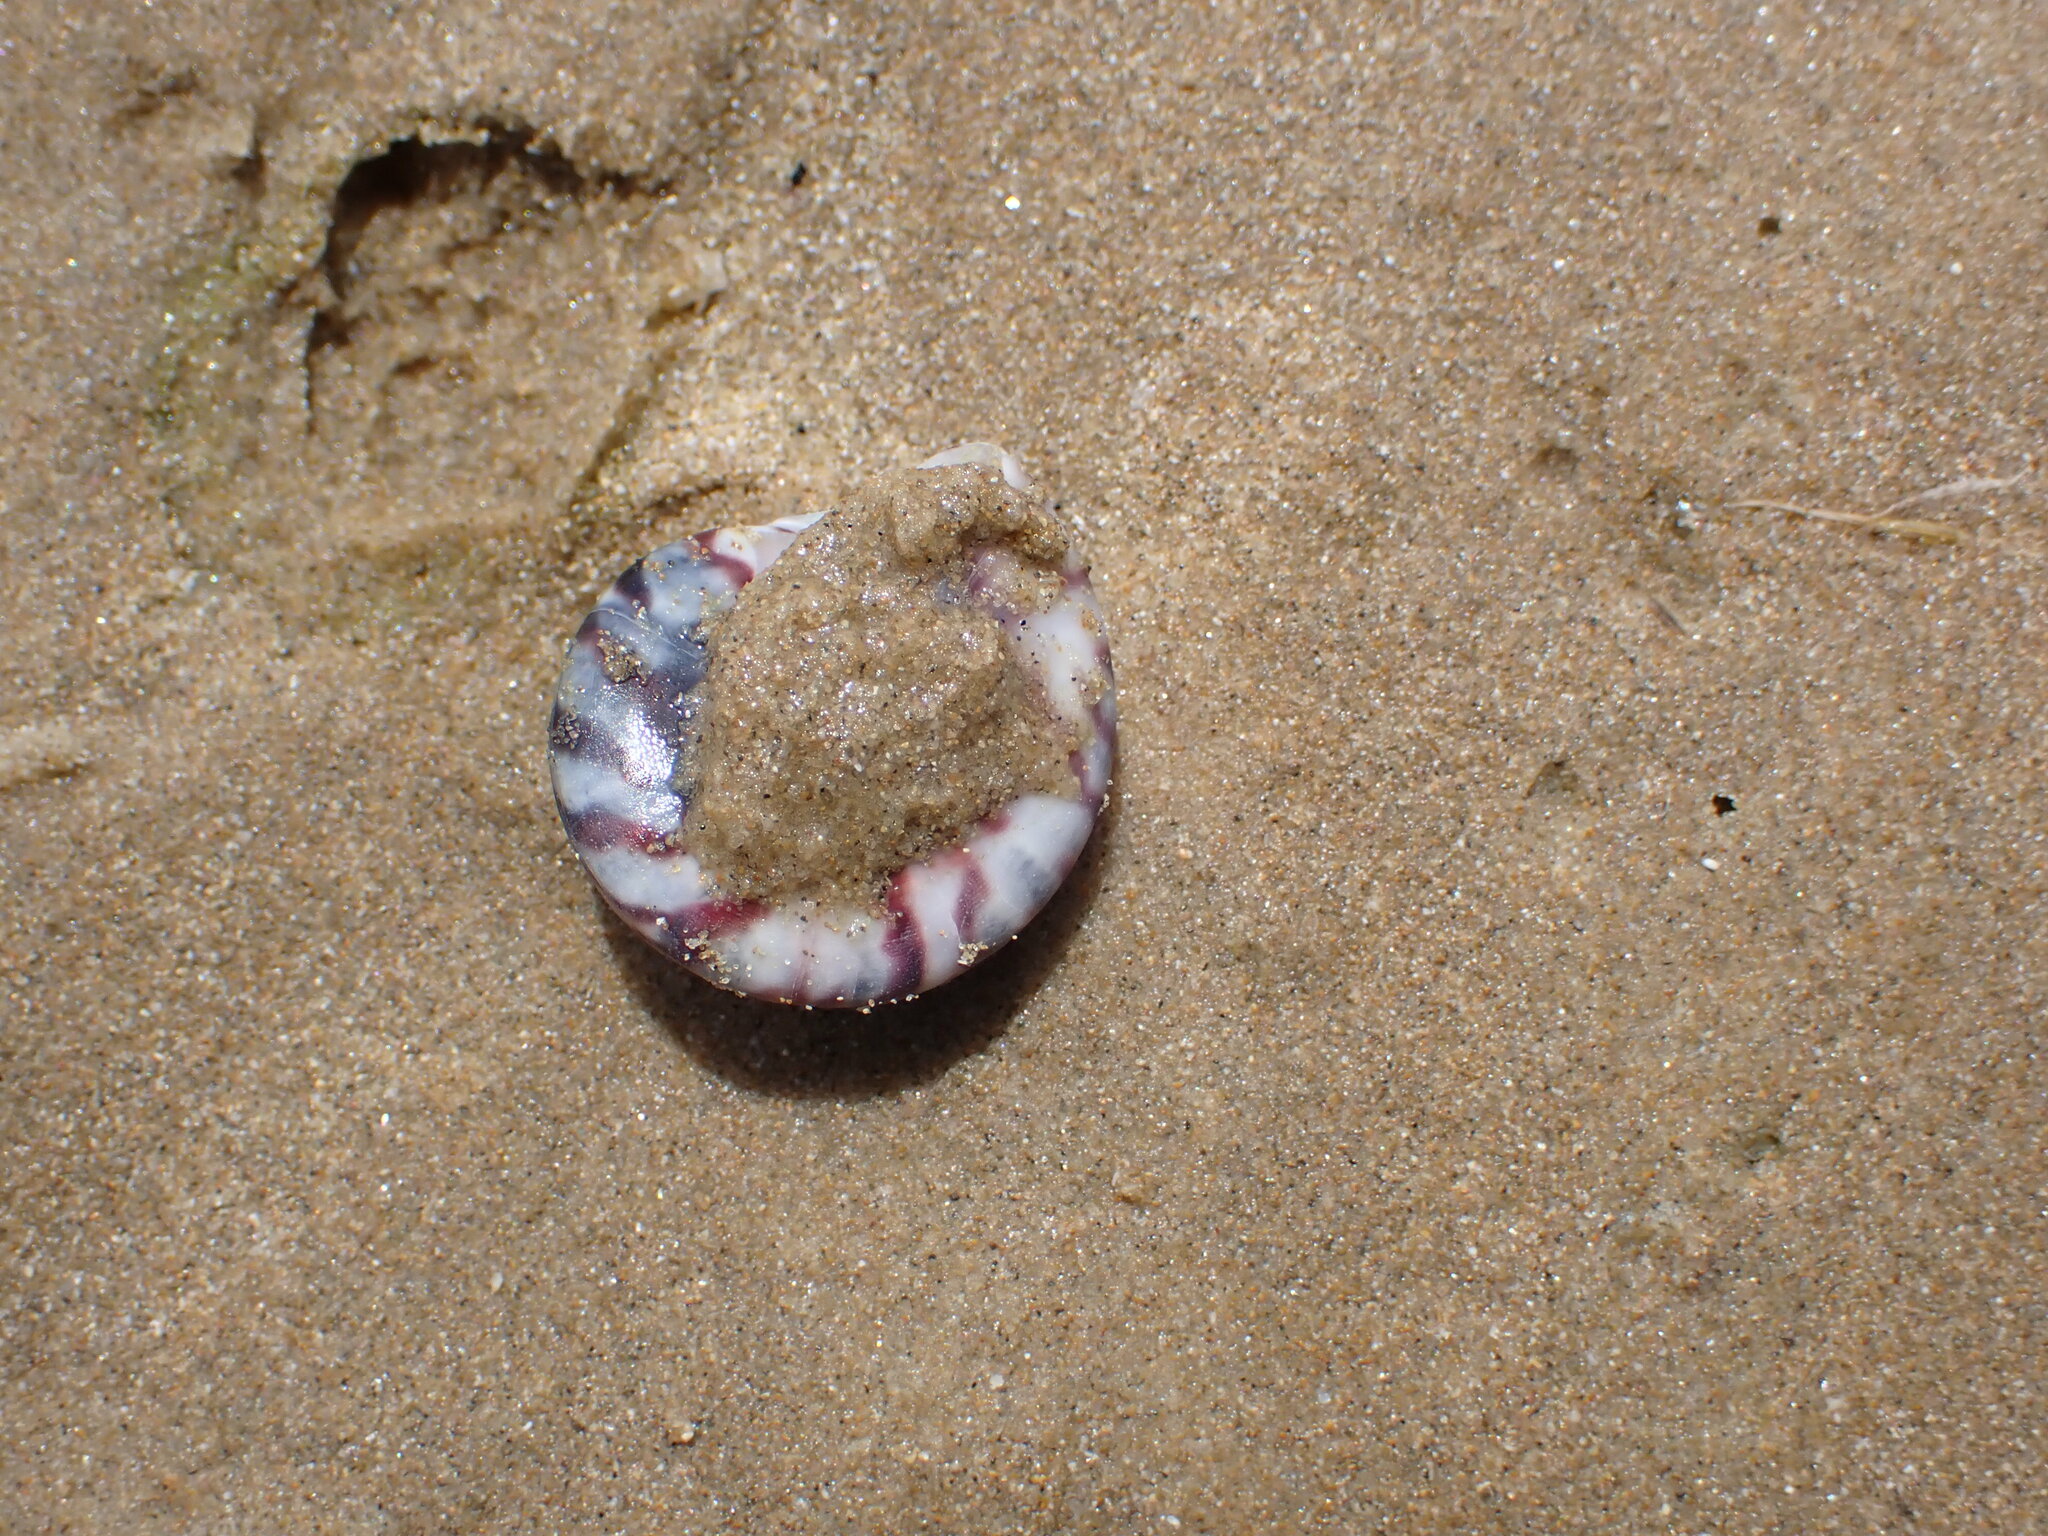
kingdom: Animalia
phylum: Mollusca
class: Gastropoda
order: Trochida
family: Trochidae
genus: Zethalia
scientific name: Zethalia zelandica
